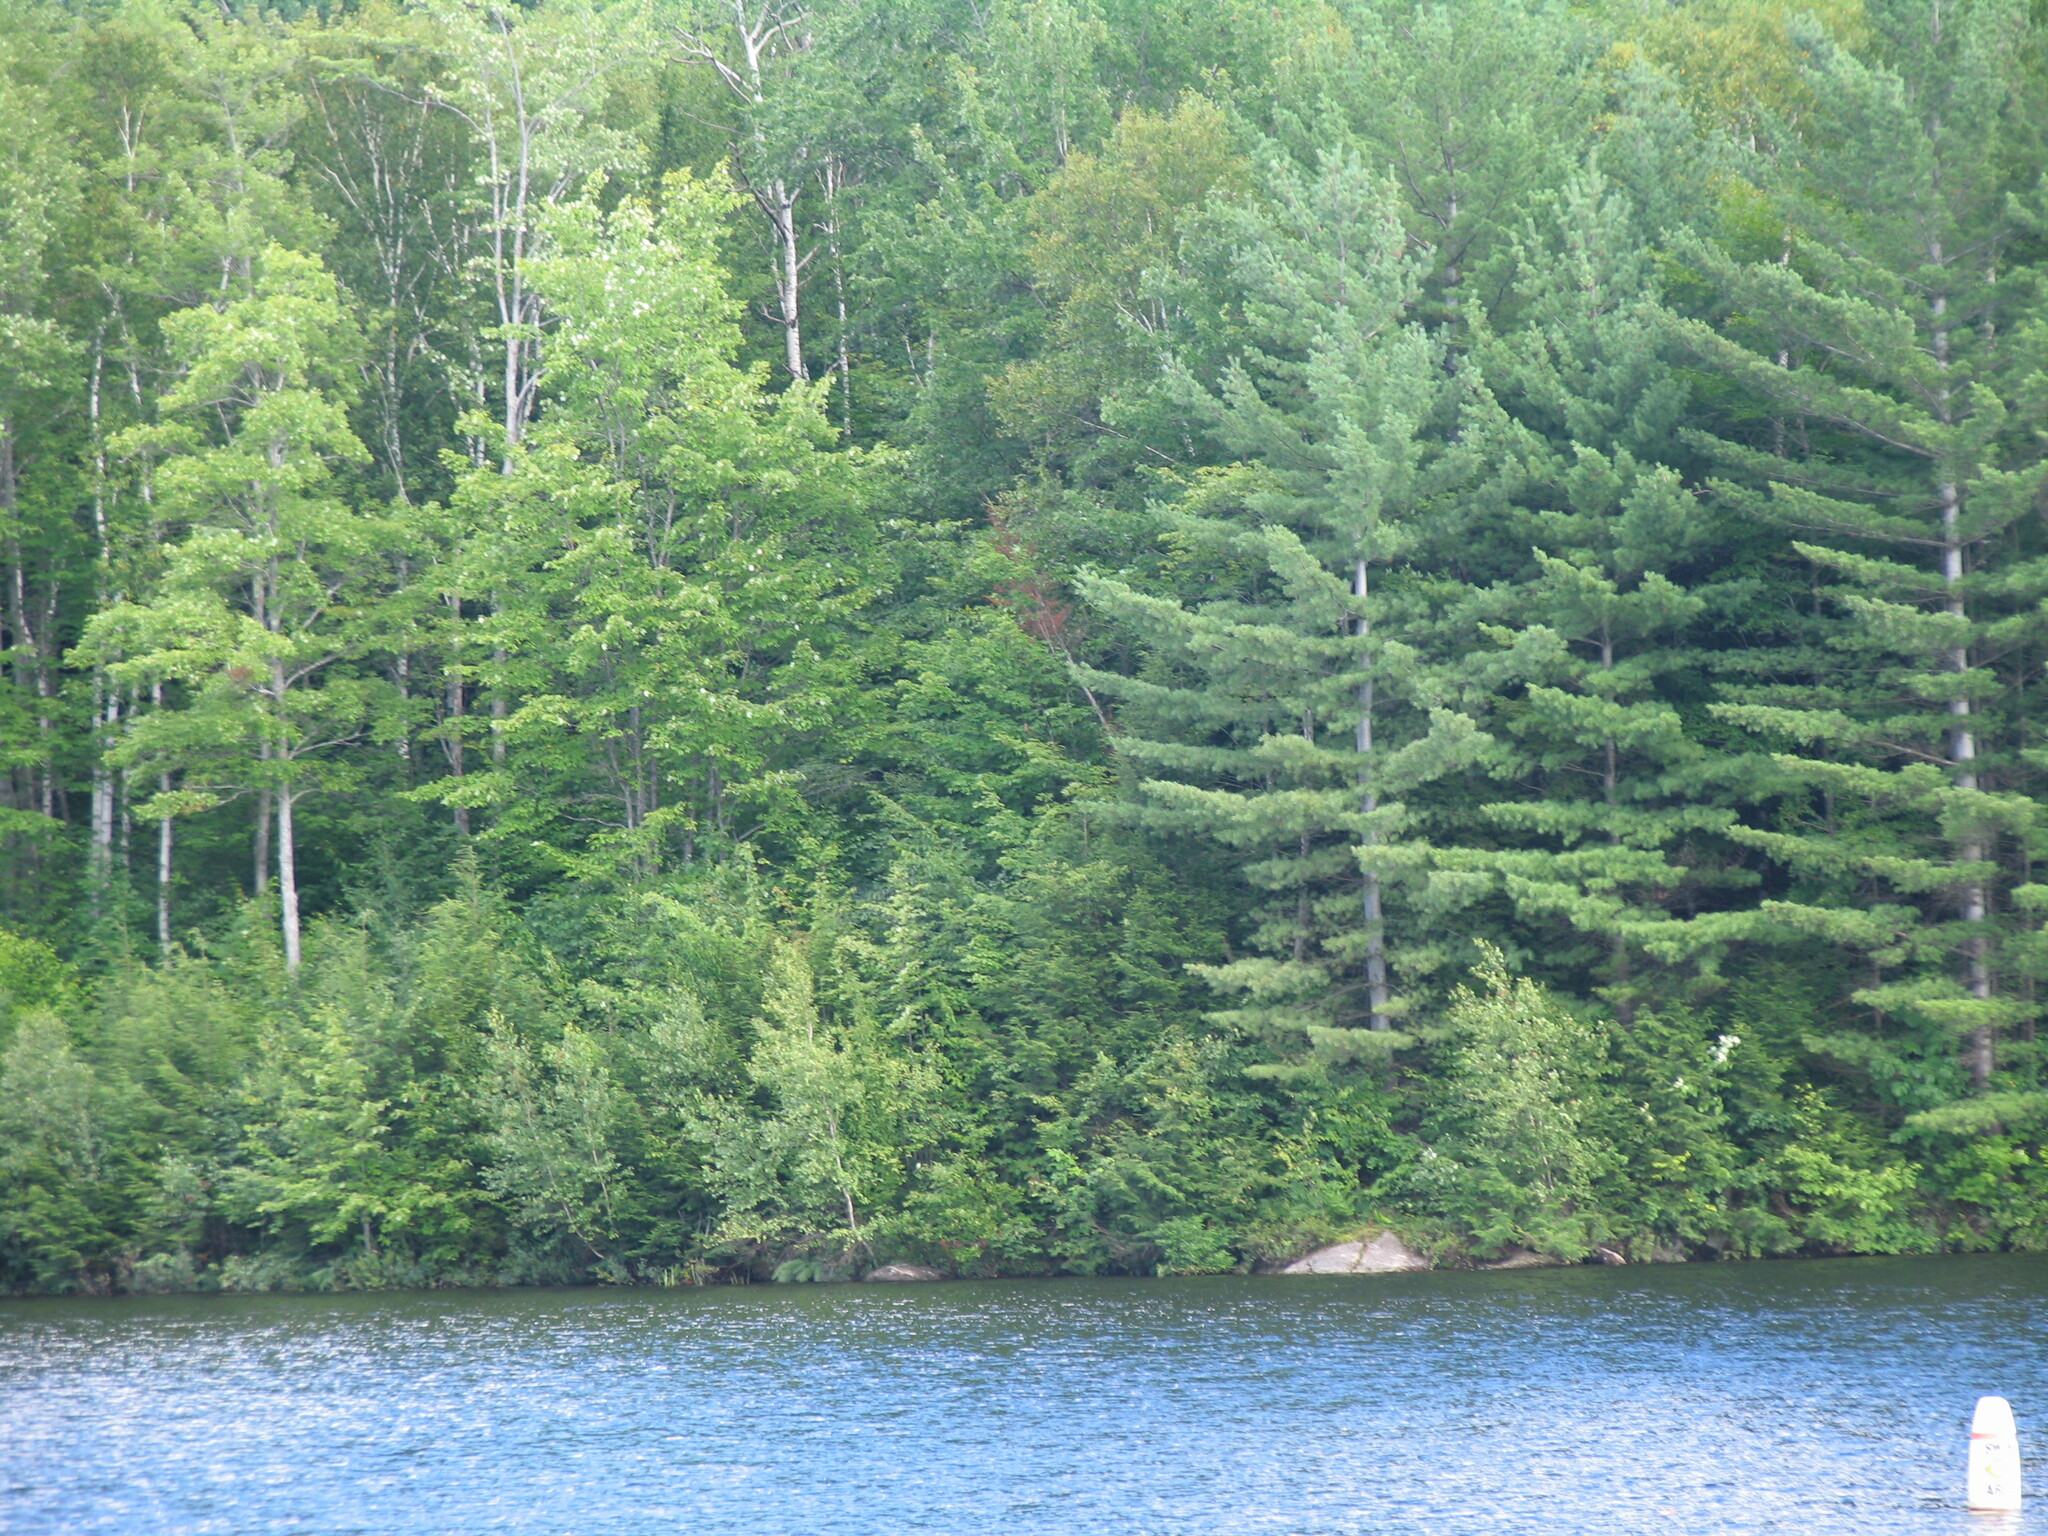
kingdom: Plantae
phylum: Tracheophyta
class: Pinopsida
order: Pinales
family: Pinaceae
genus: Pinus
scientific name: Pinus strobus
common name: Weymouth pine
